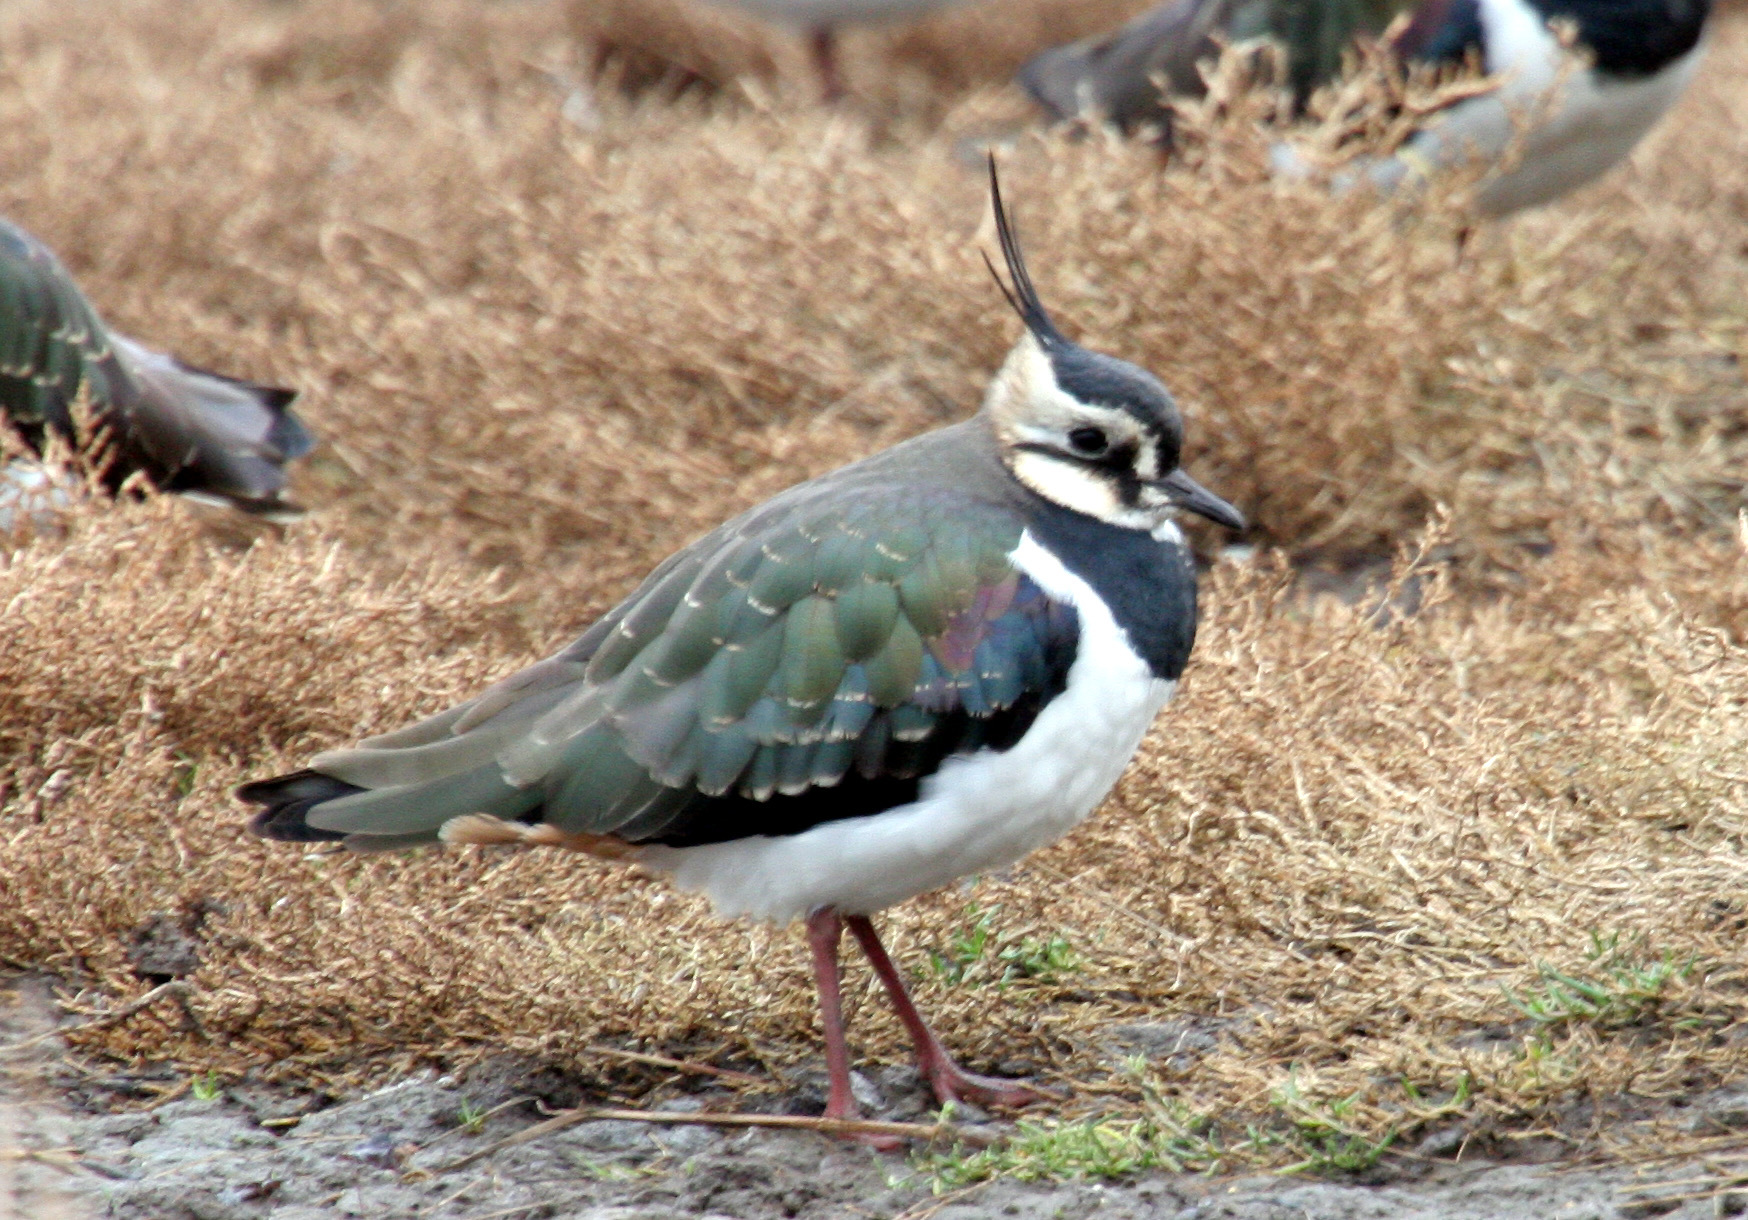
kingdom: Animalia
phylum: Chordata
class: Aves
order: Charadriiformes
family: Charadriidae
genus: Vanellus
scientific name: Vanellus vanellus
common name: Northern lapwing
